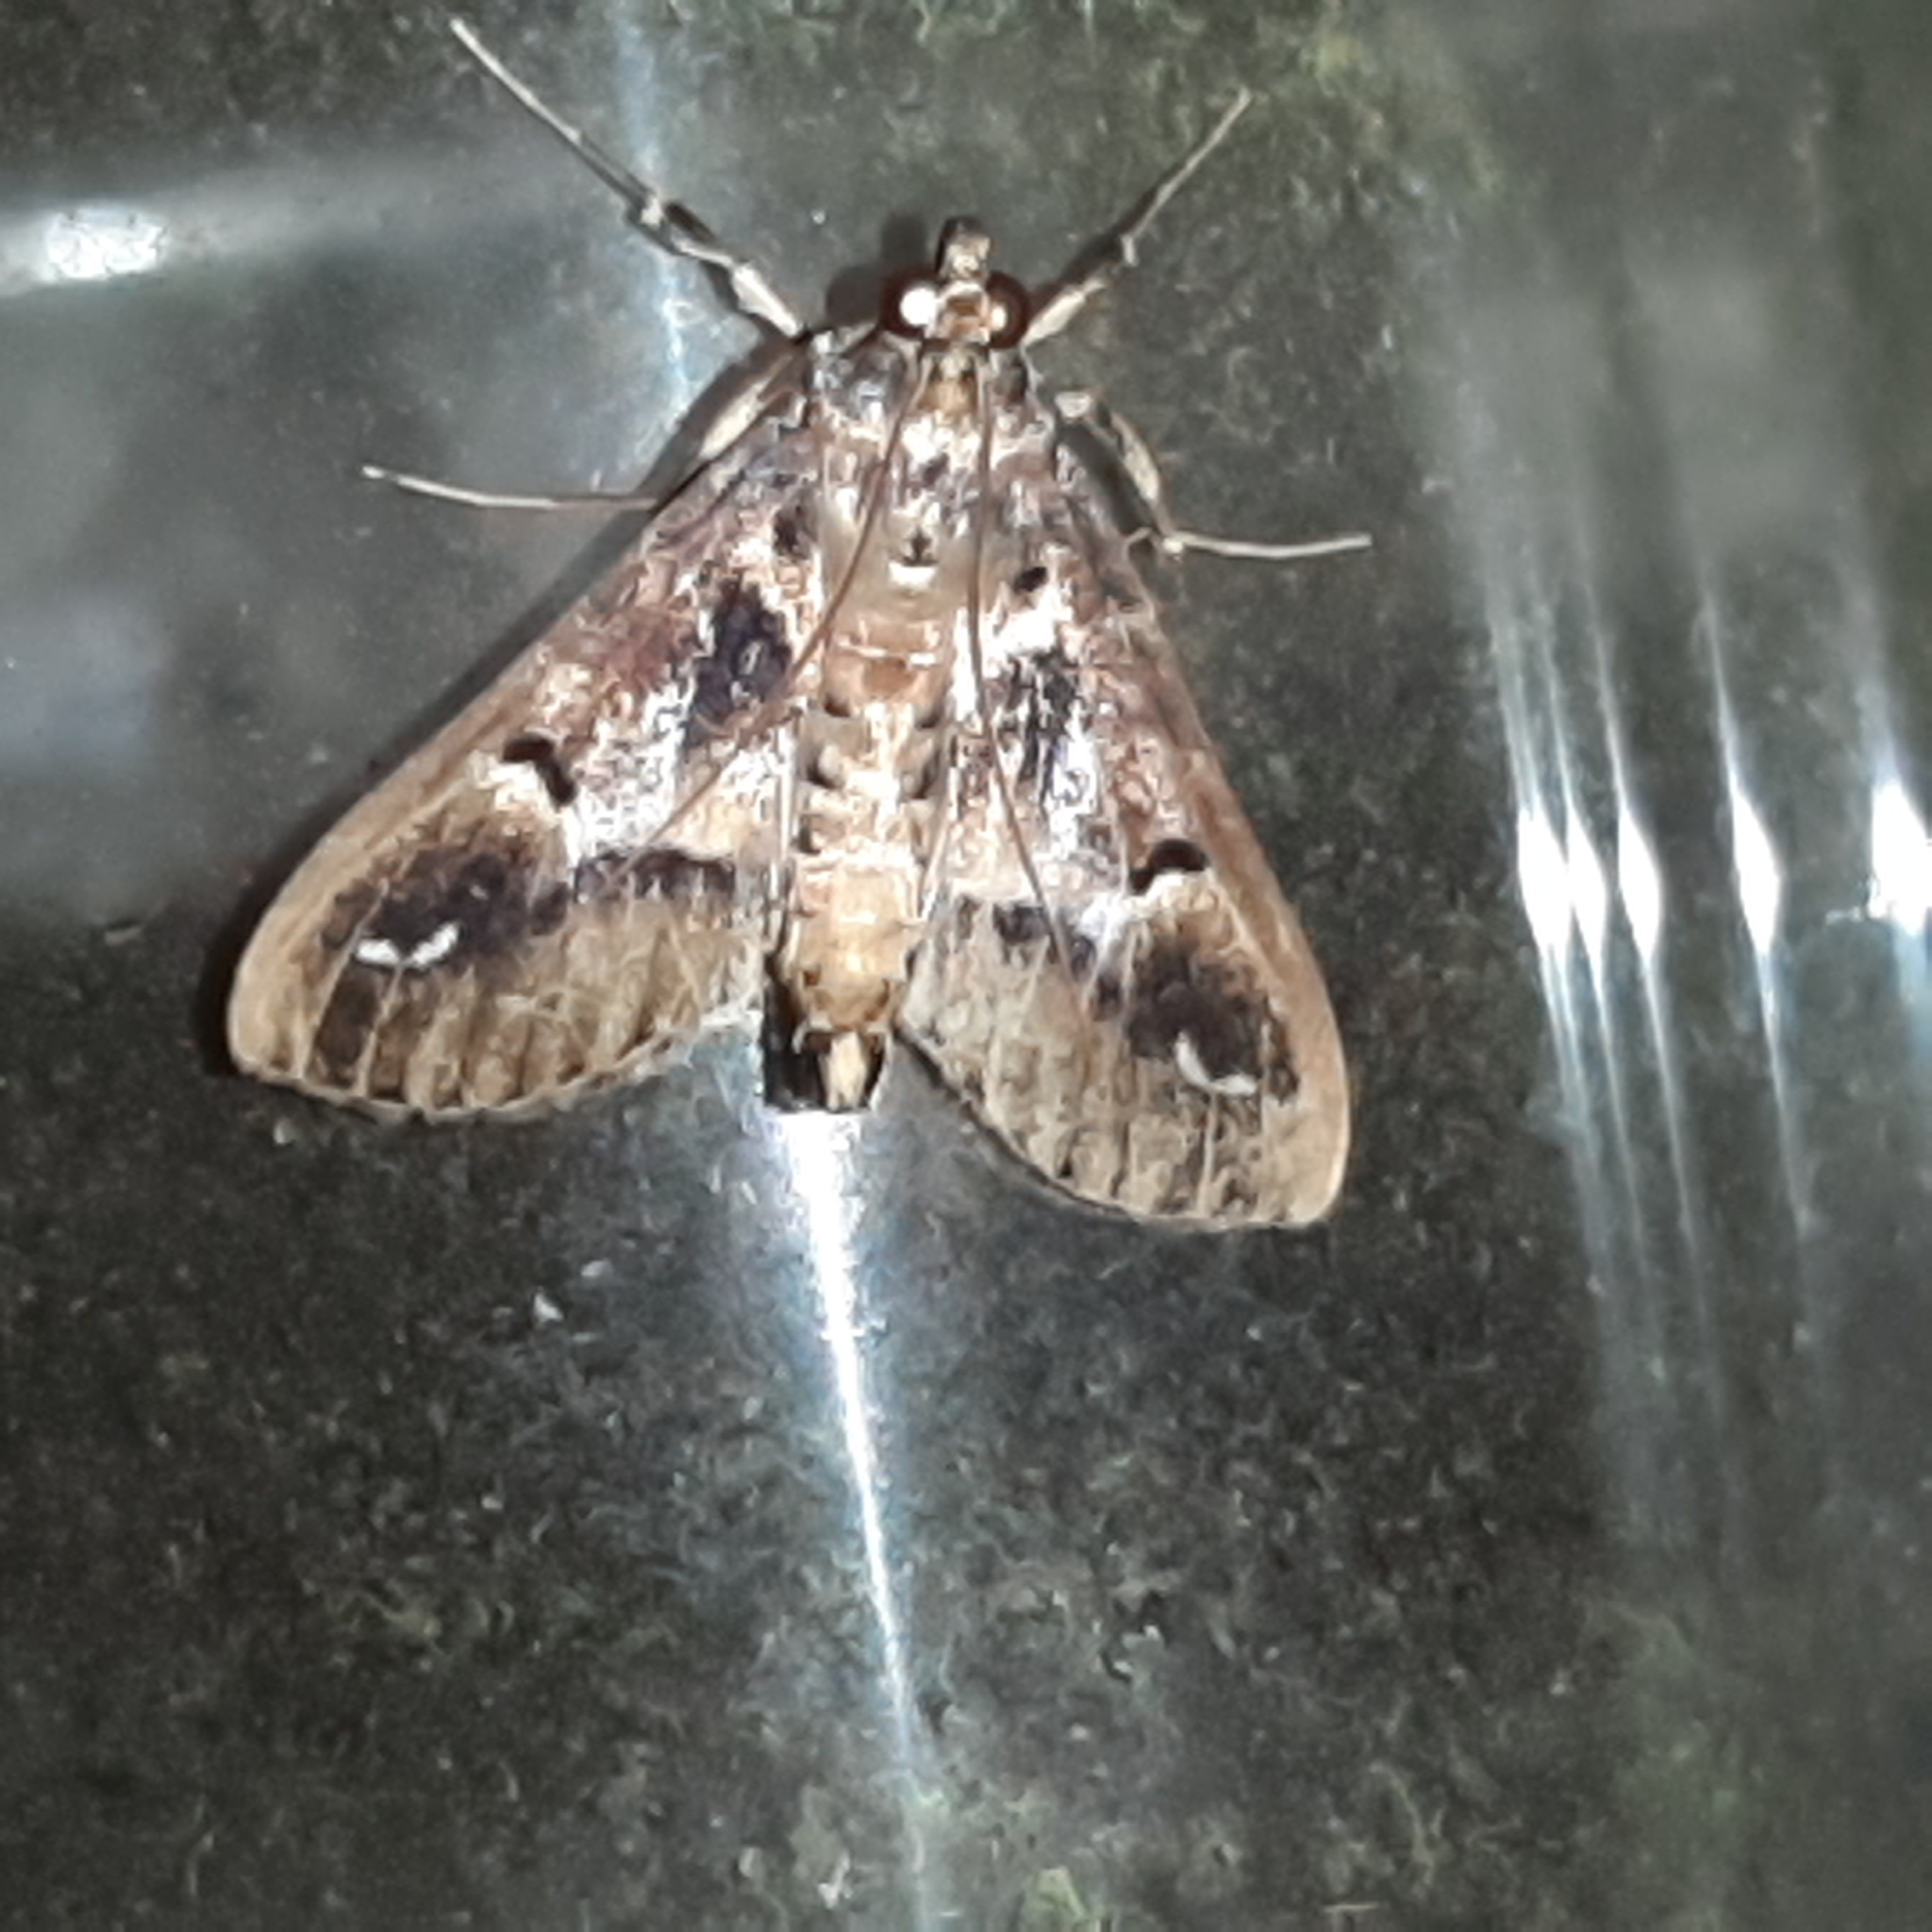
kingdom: Animalia
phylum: Arthropoda
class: Insecta
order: Lepidoptera
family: Crambidae
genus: Diaphania
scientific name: Diaphania costaricalis
